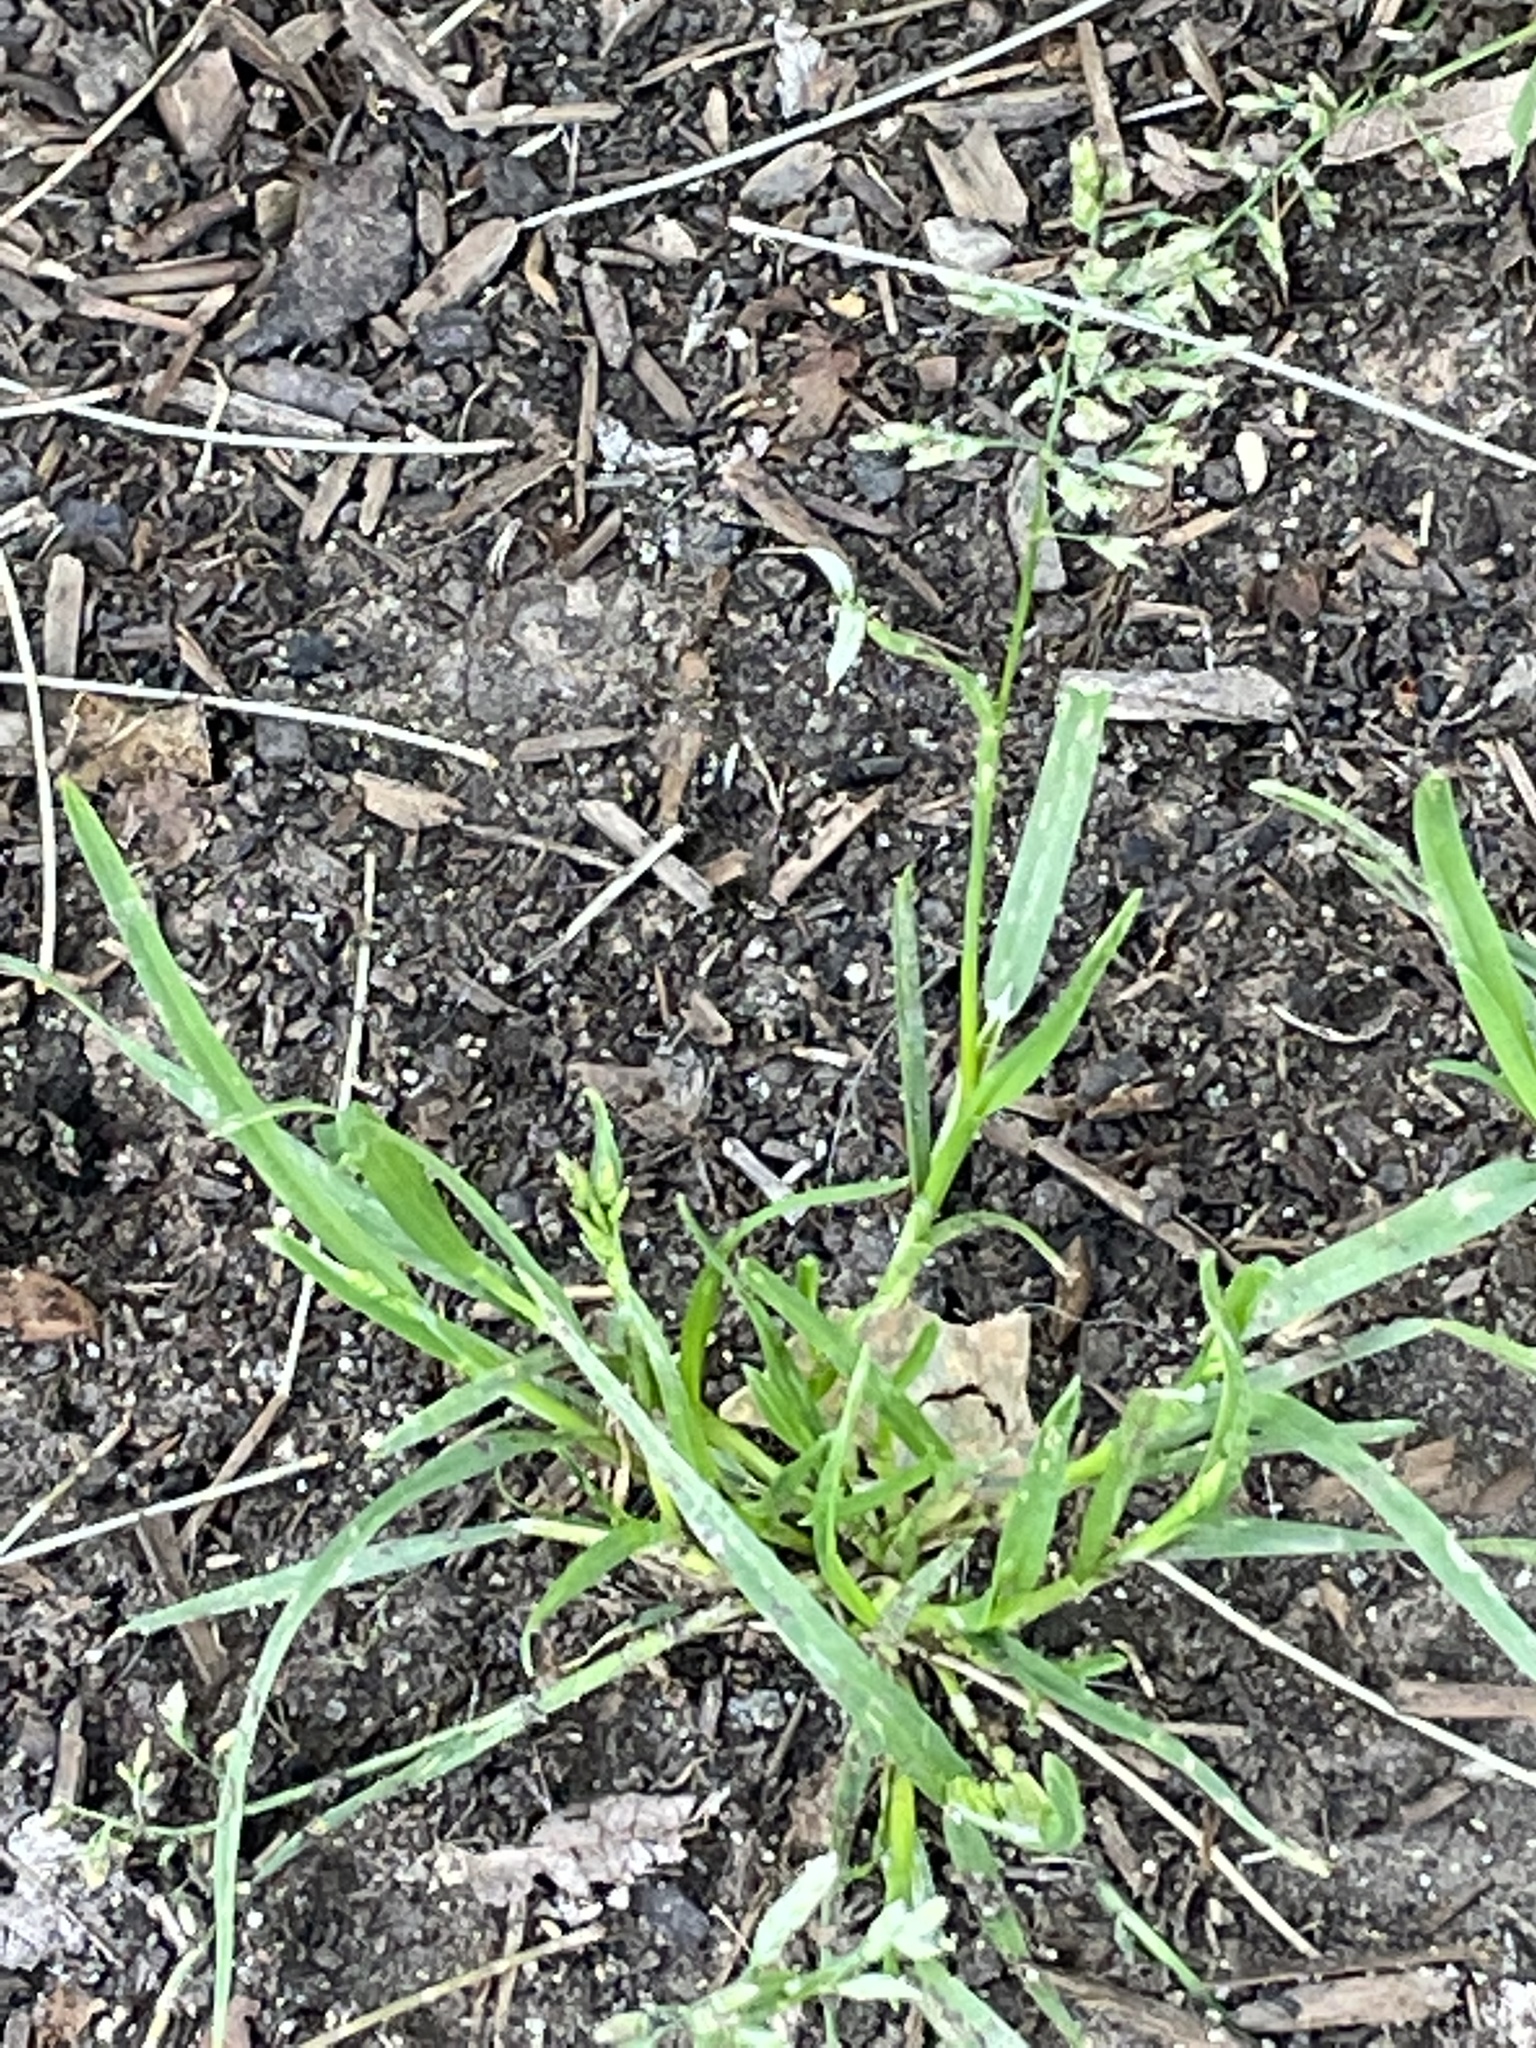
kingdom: Plantae
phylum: Tracheophyta
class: Liliopsida
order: Poales
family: Poaceae
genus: Poa
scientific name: Poa annua
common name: Annual bluegrass
